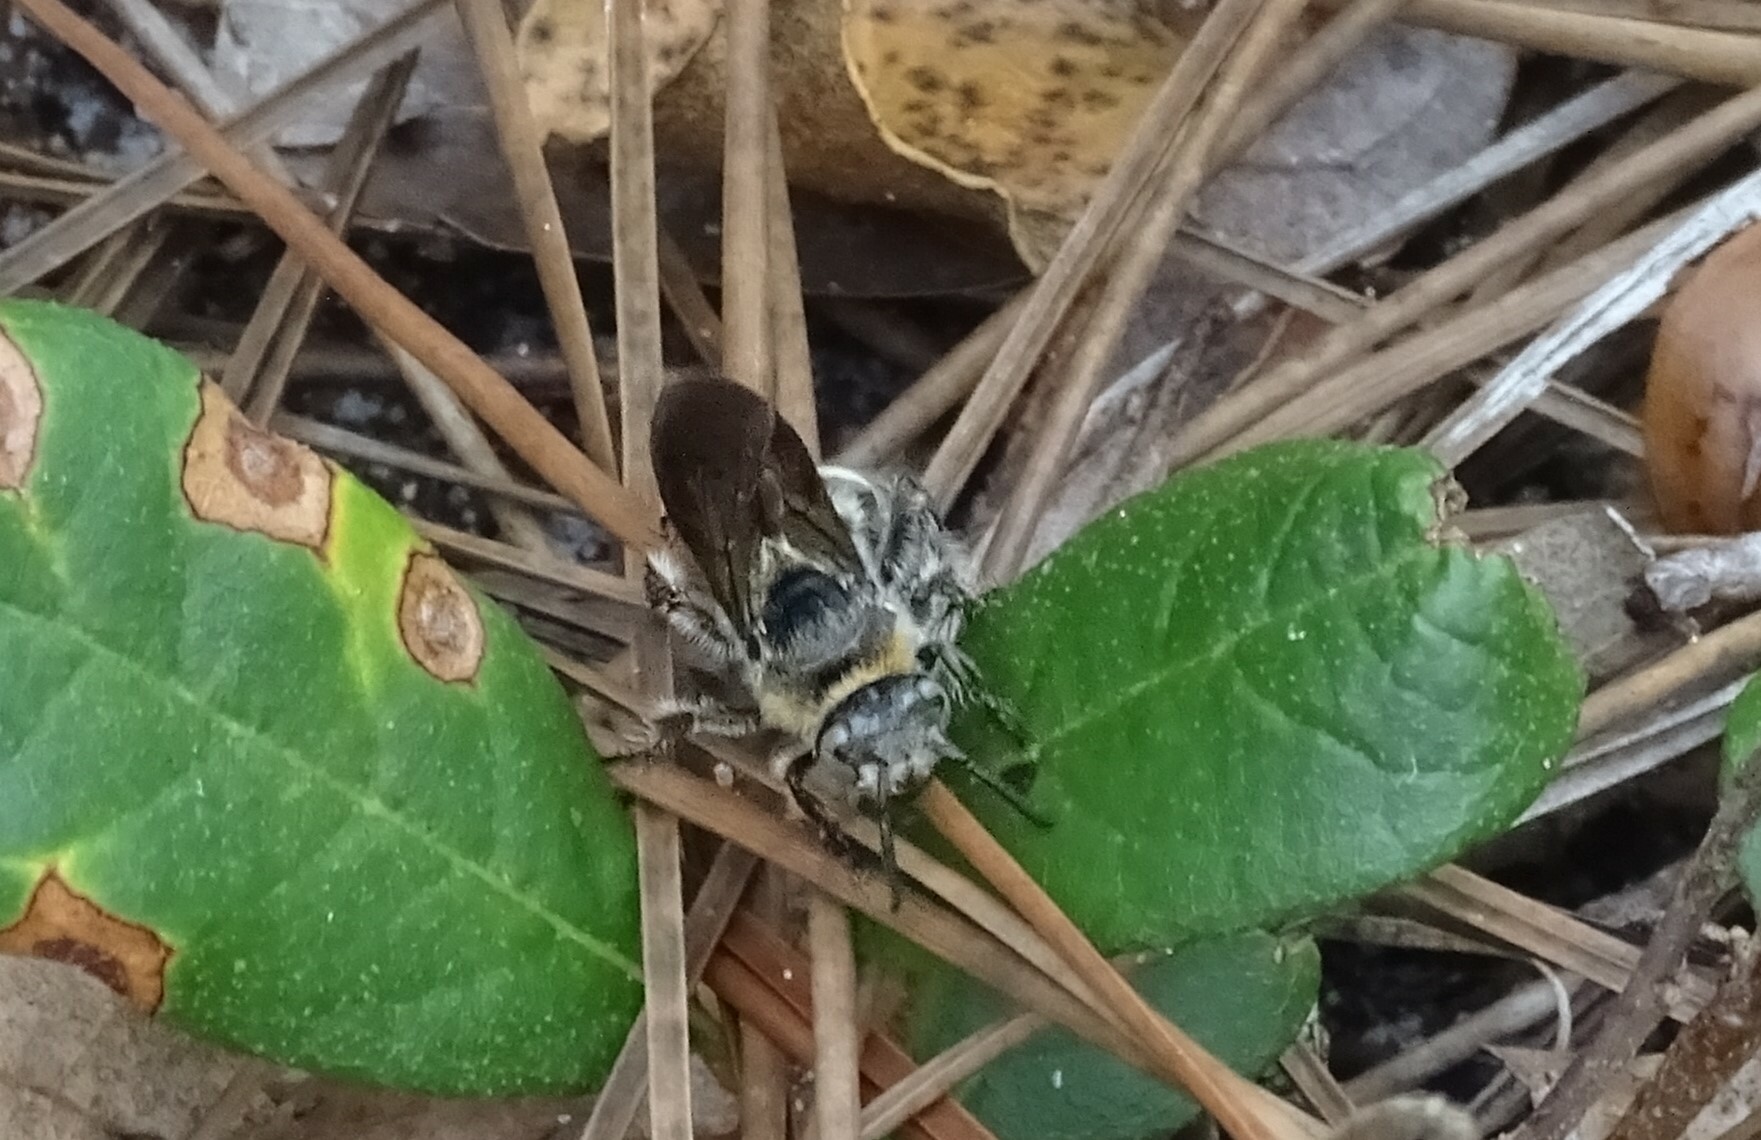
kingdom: Animalia
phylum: Arthropoda
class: Insecta
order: Hymenoptera
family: Scoliidae
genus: Dielis
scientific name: Dielis
